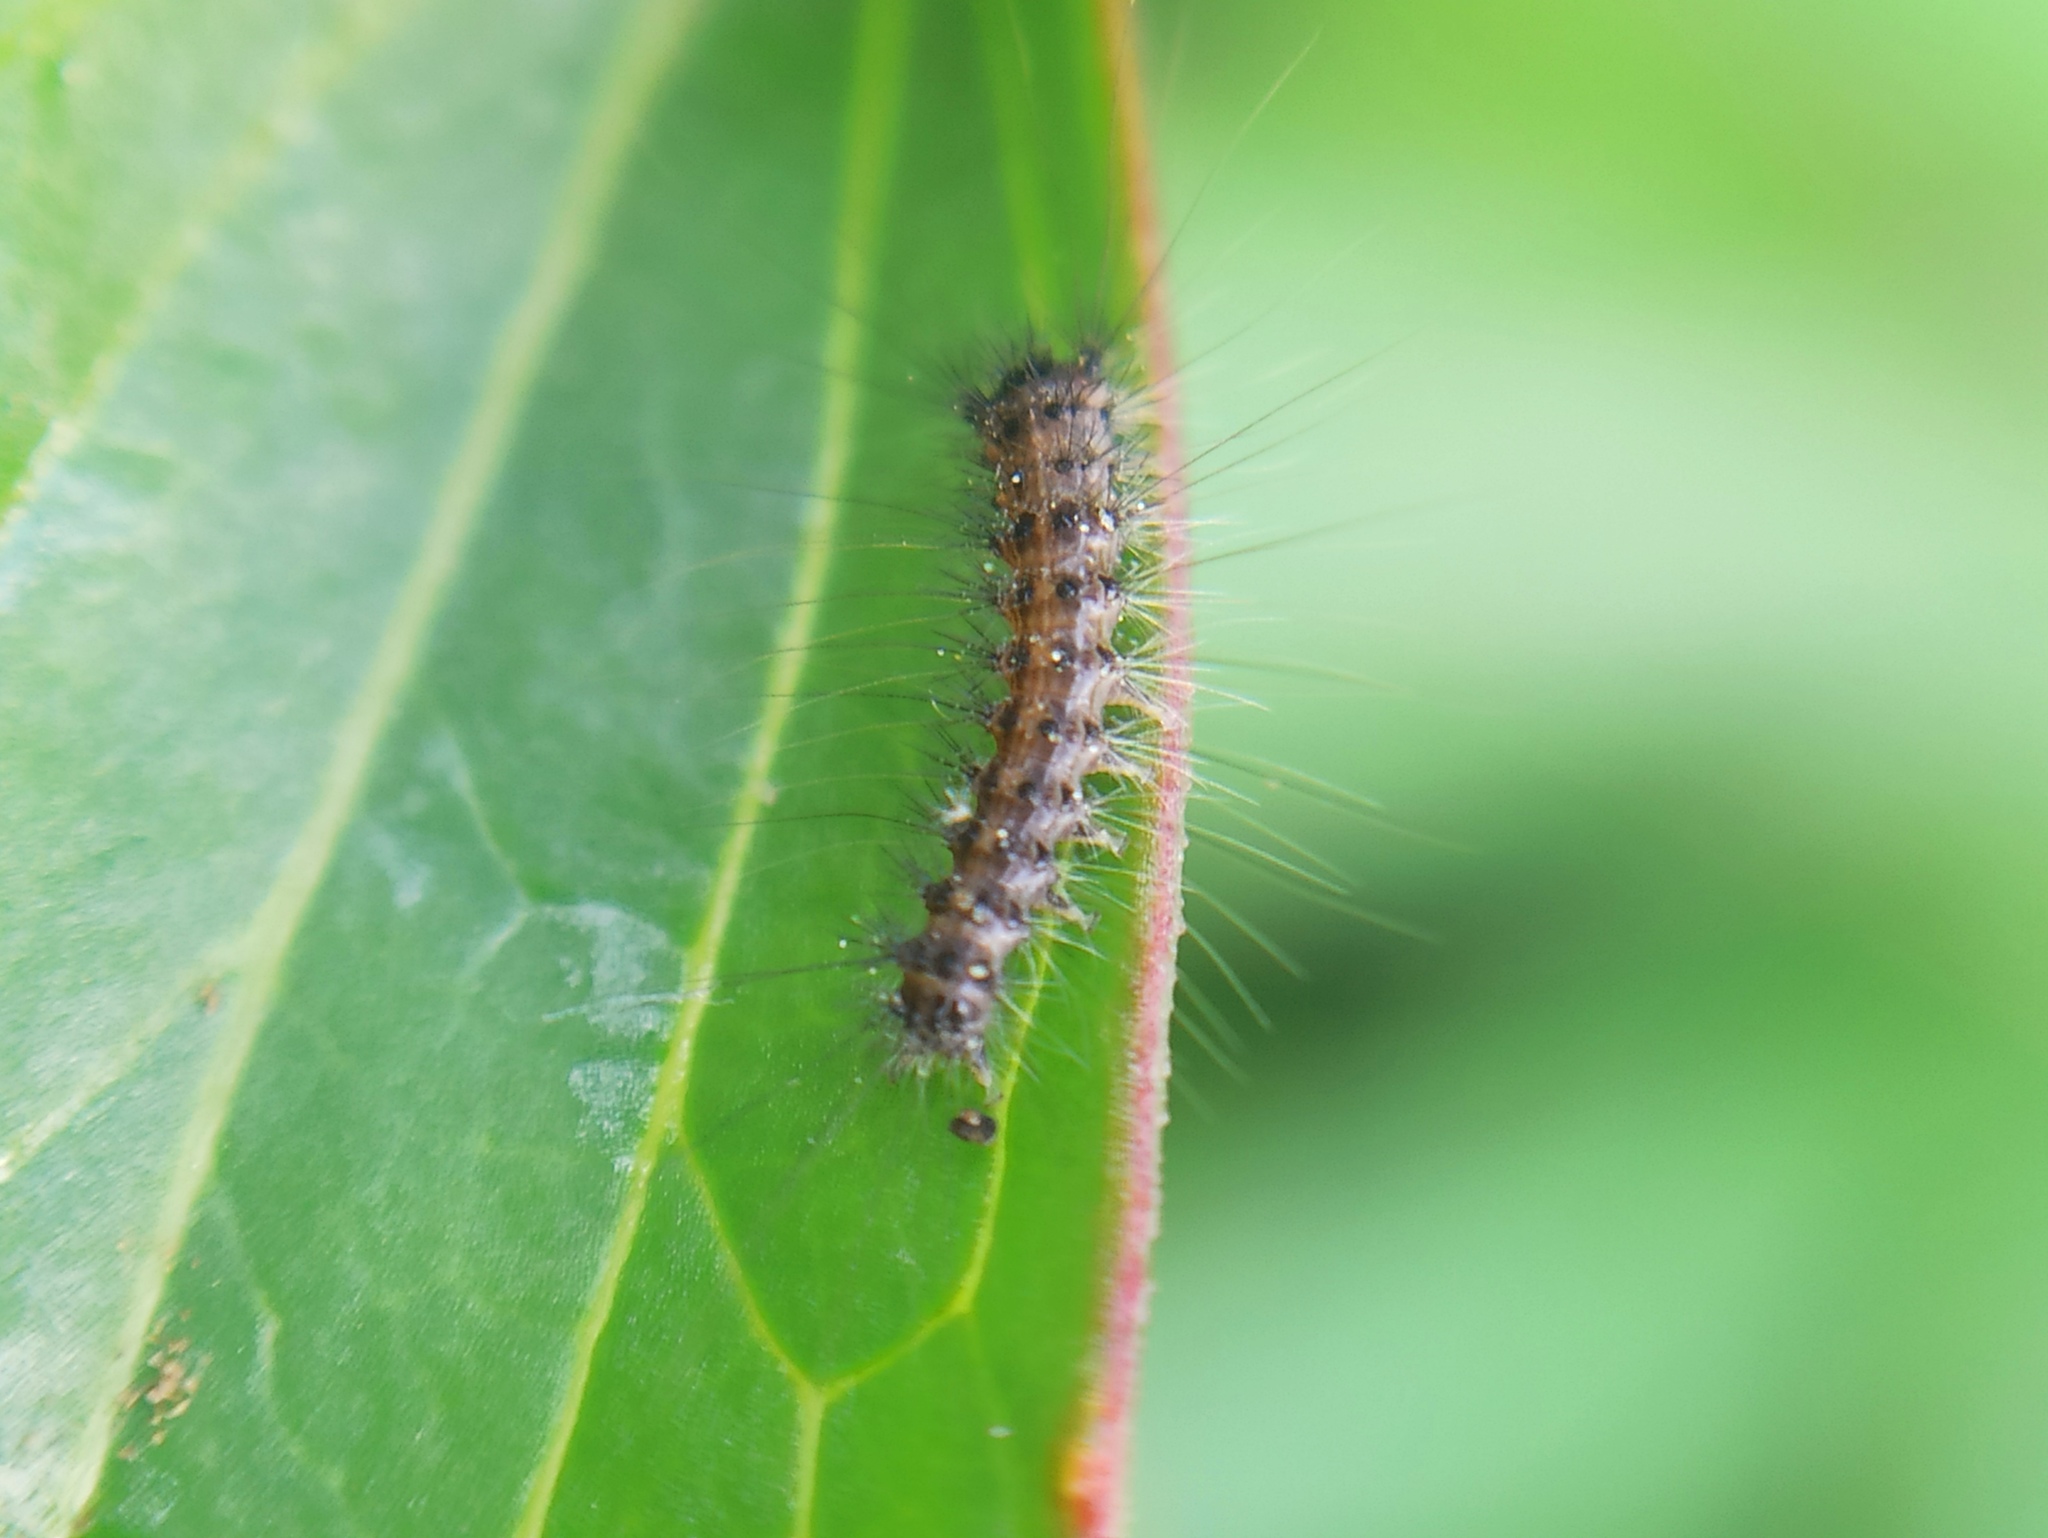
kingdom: Animalia
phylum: Arthropoda
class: Insecta
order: Lepidoptera
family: Erebidae
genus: Lymantria
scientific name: Lymantria dispar
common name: Gypsy moth
